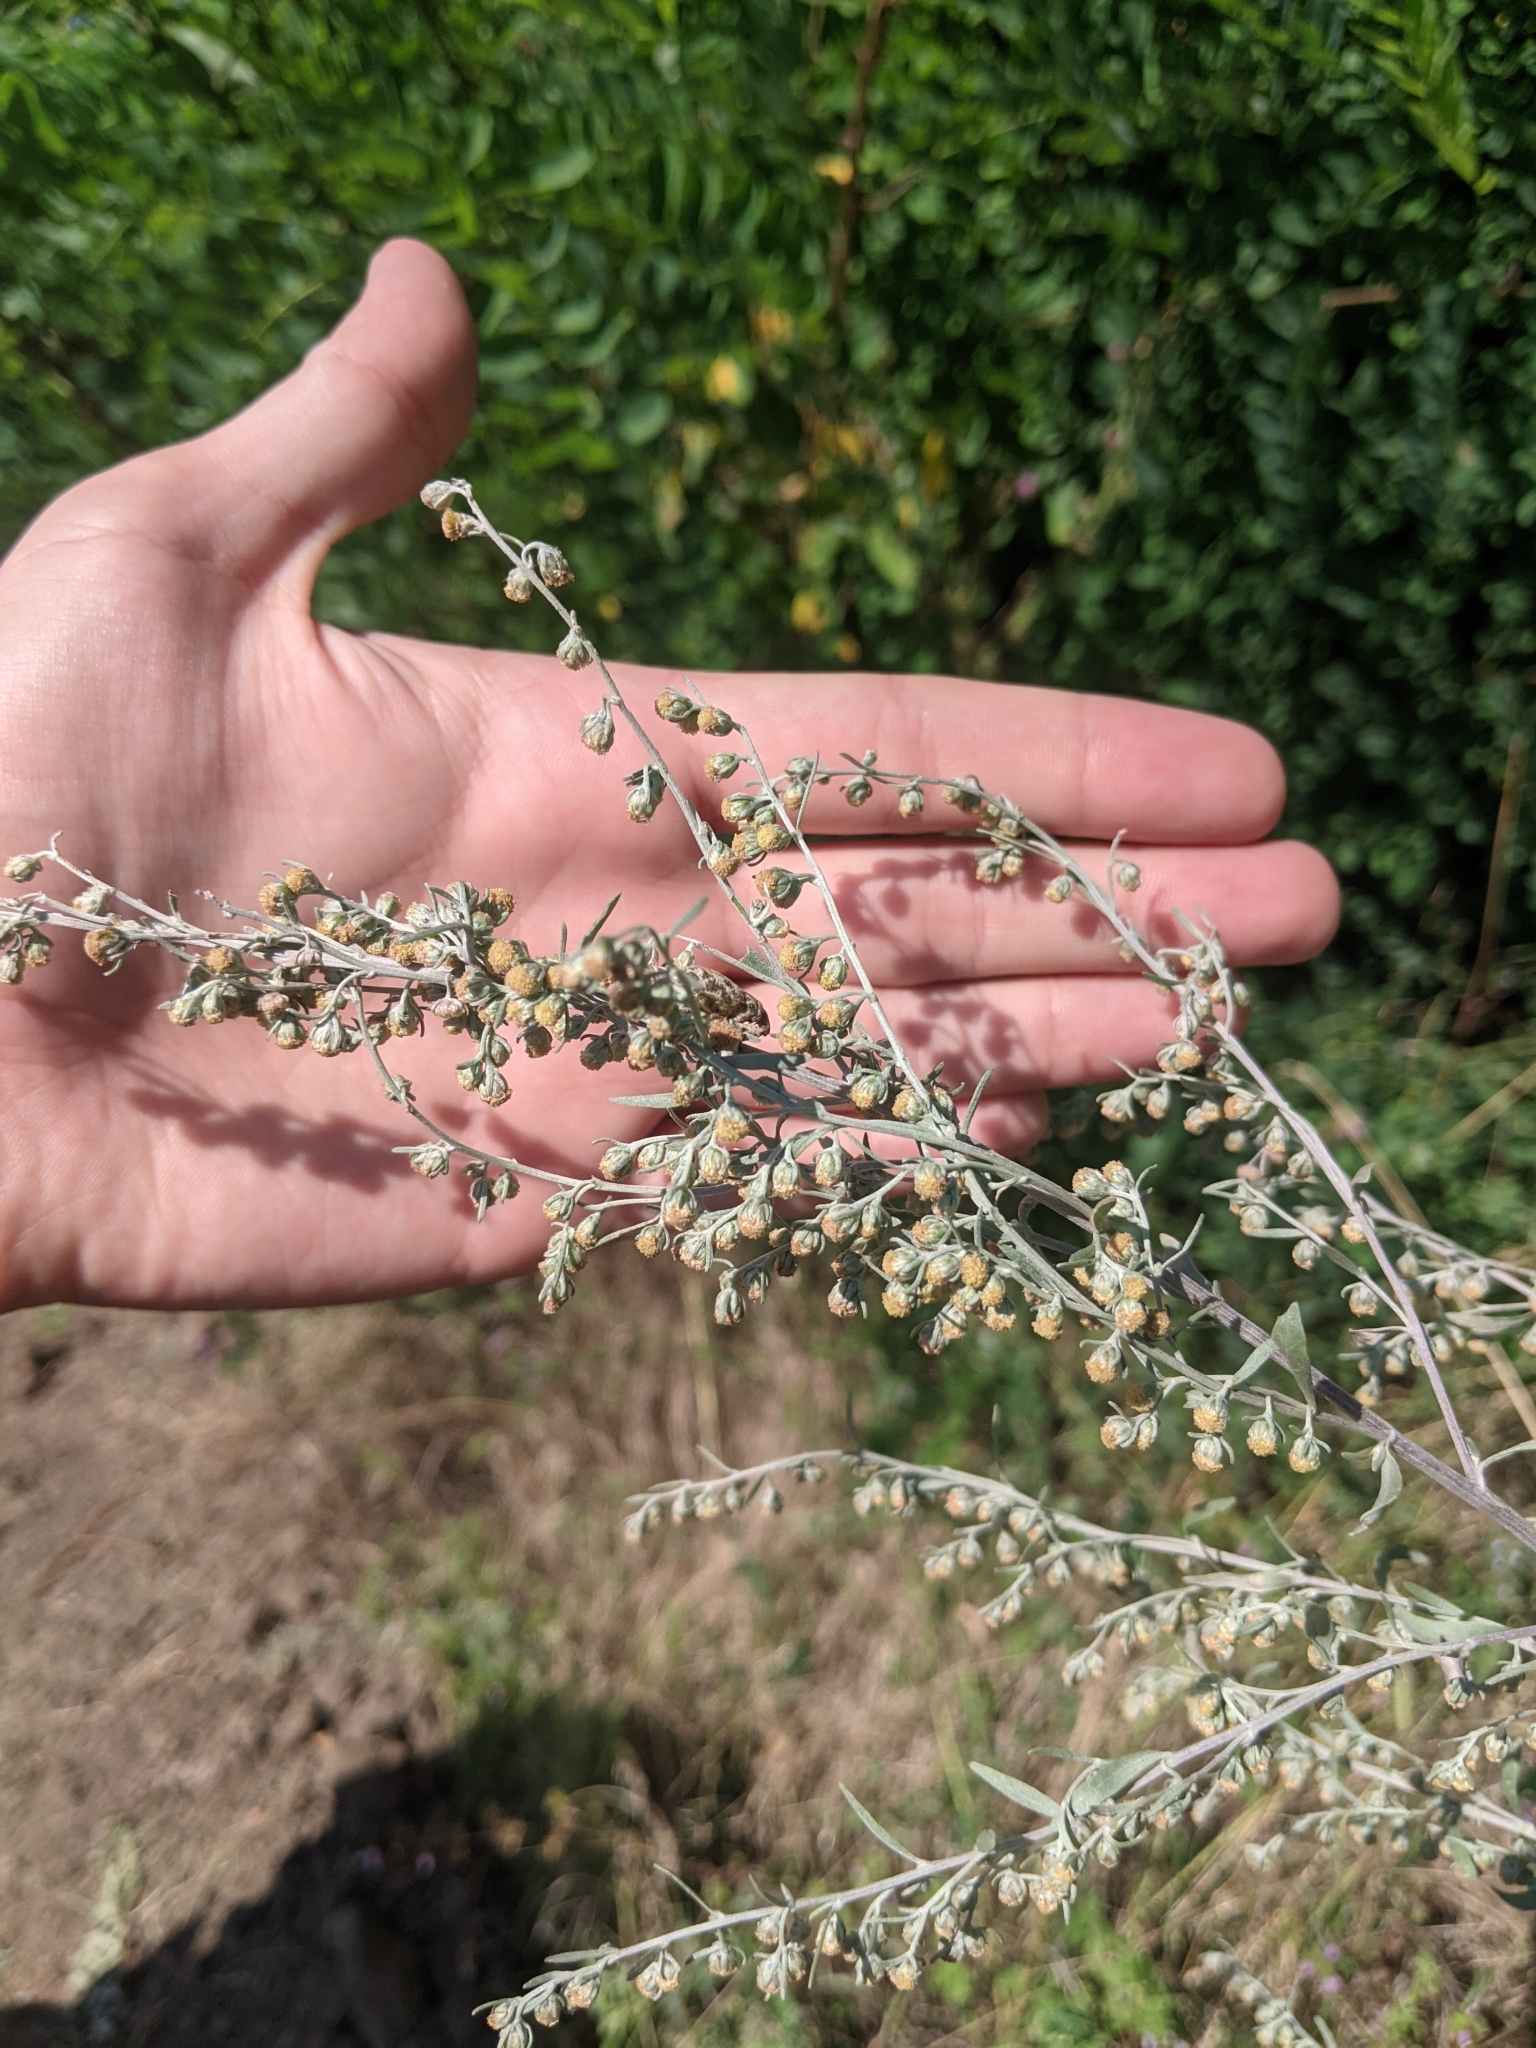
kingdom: Plantae
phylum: Tracheophyta
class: Magnoliopsida
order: Asterales
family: Asteraceae
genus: Artemisia
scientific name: Artemisia absinthium
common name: Wormwood
